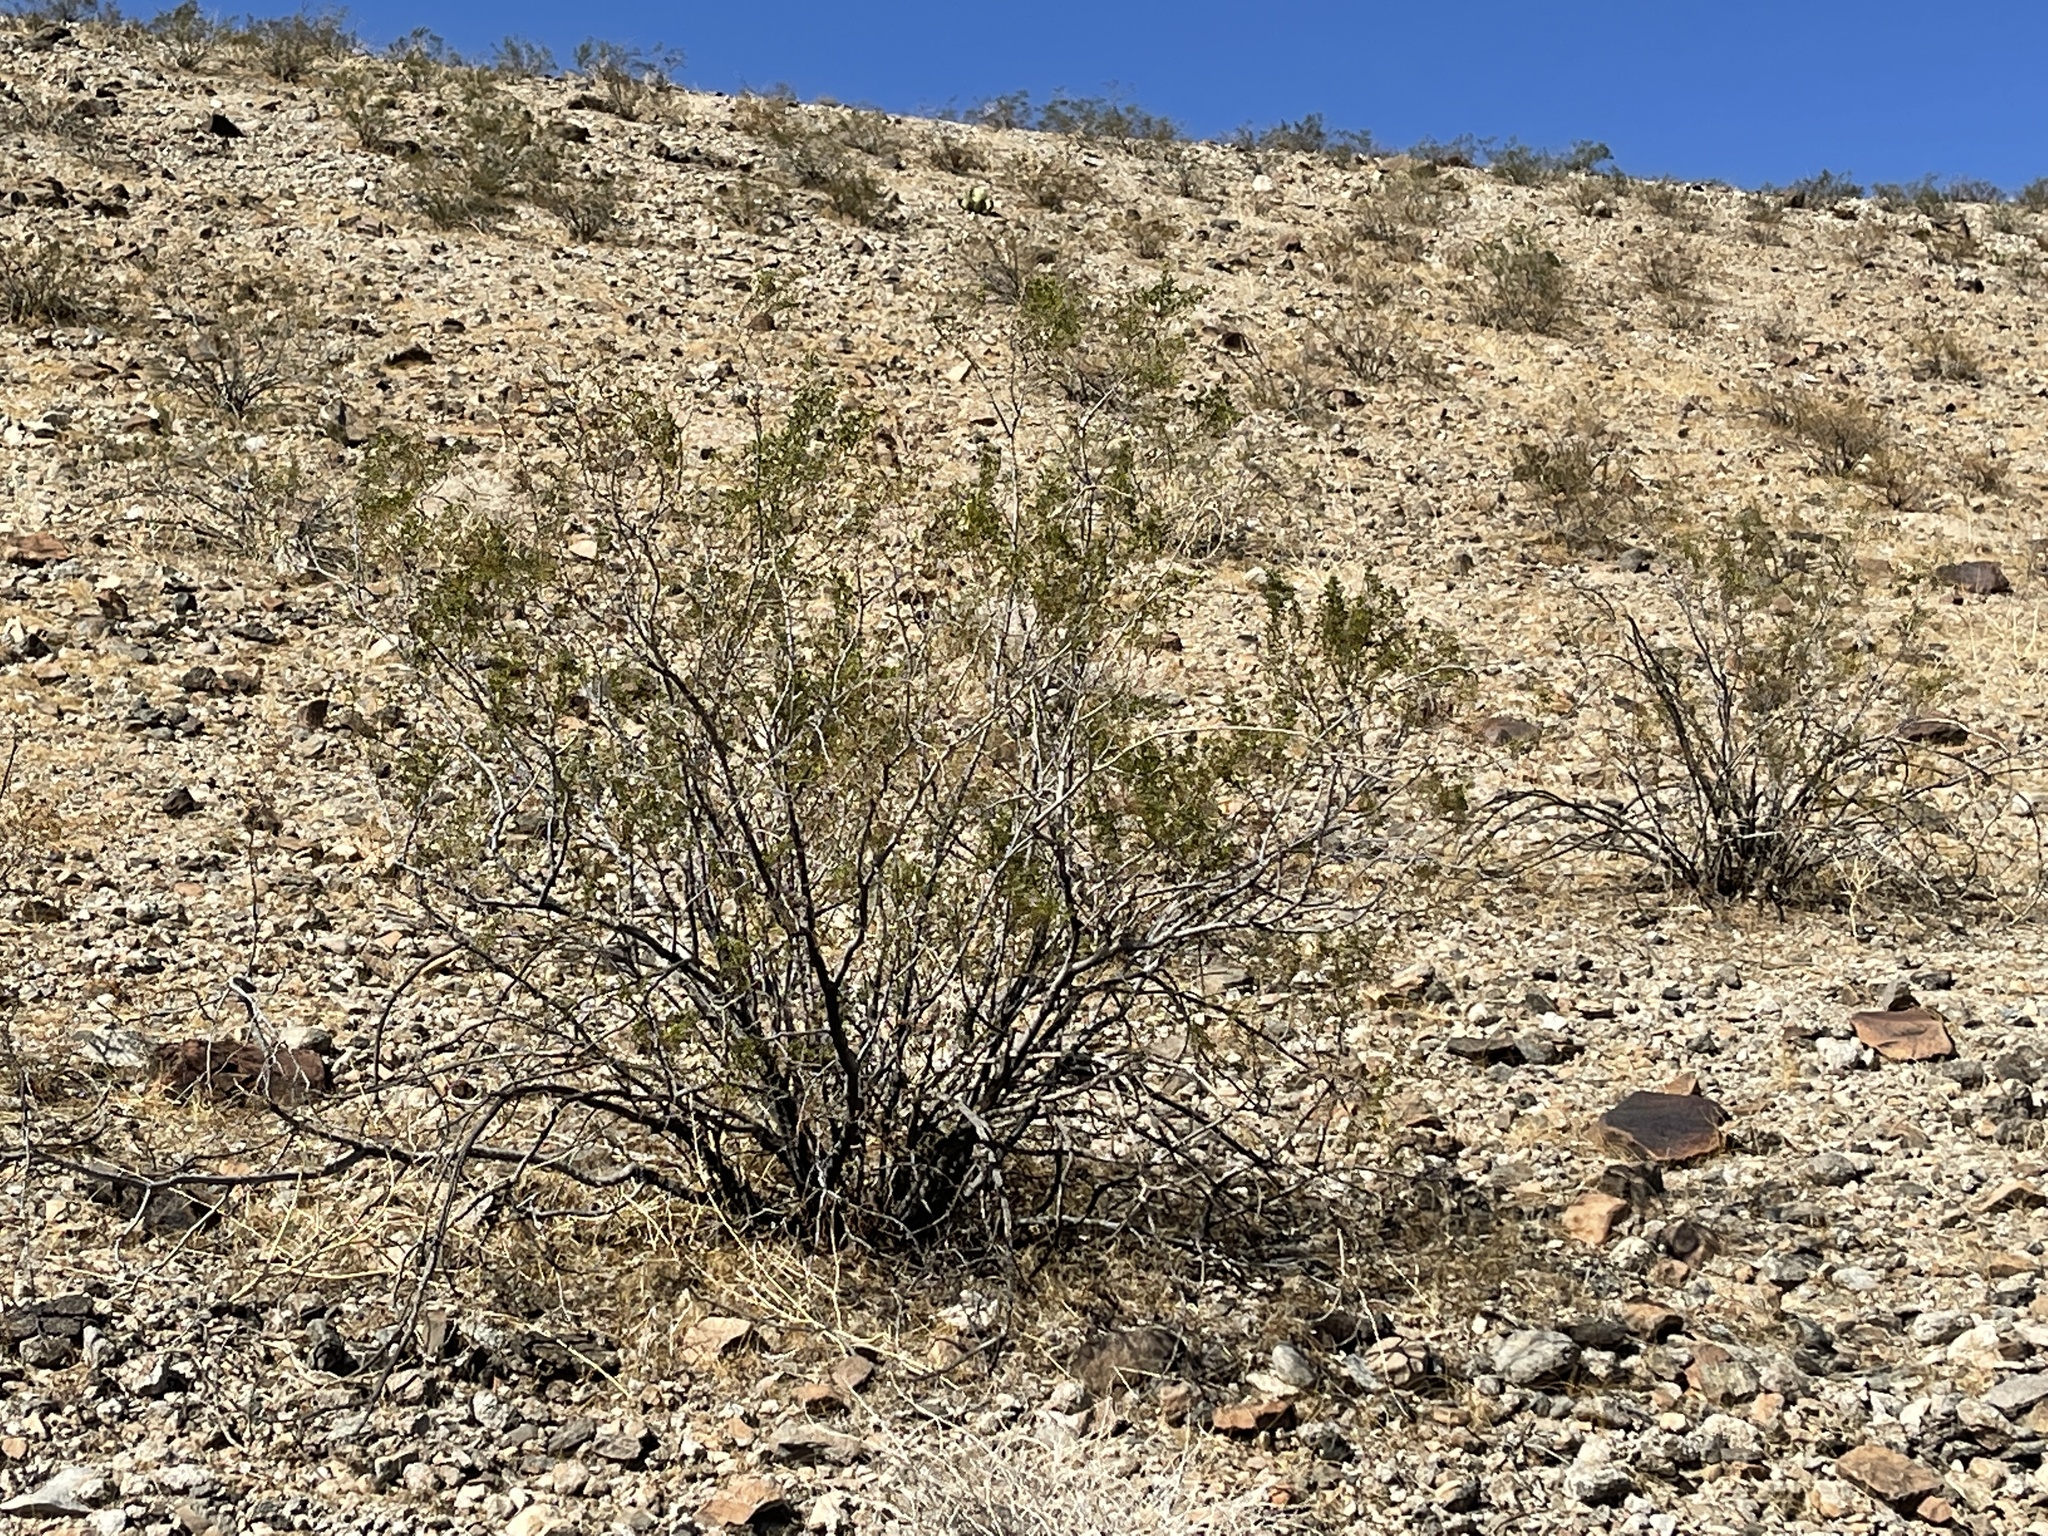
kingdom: Plantae
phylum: Tracheophyta
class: Magnoliopsida
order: Zygophyllales
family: Zygophyllaceae
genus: Larrea
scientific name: Larrea tridentata
